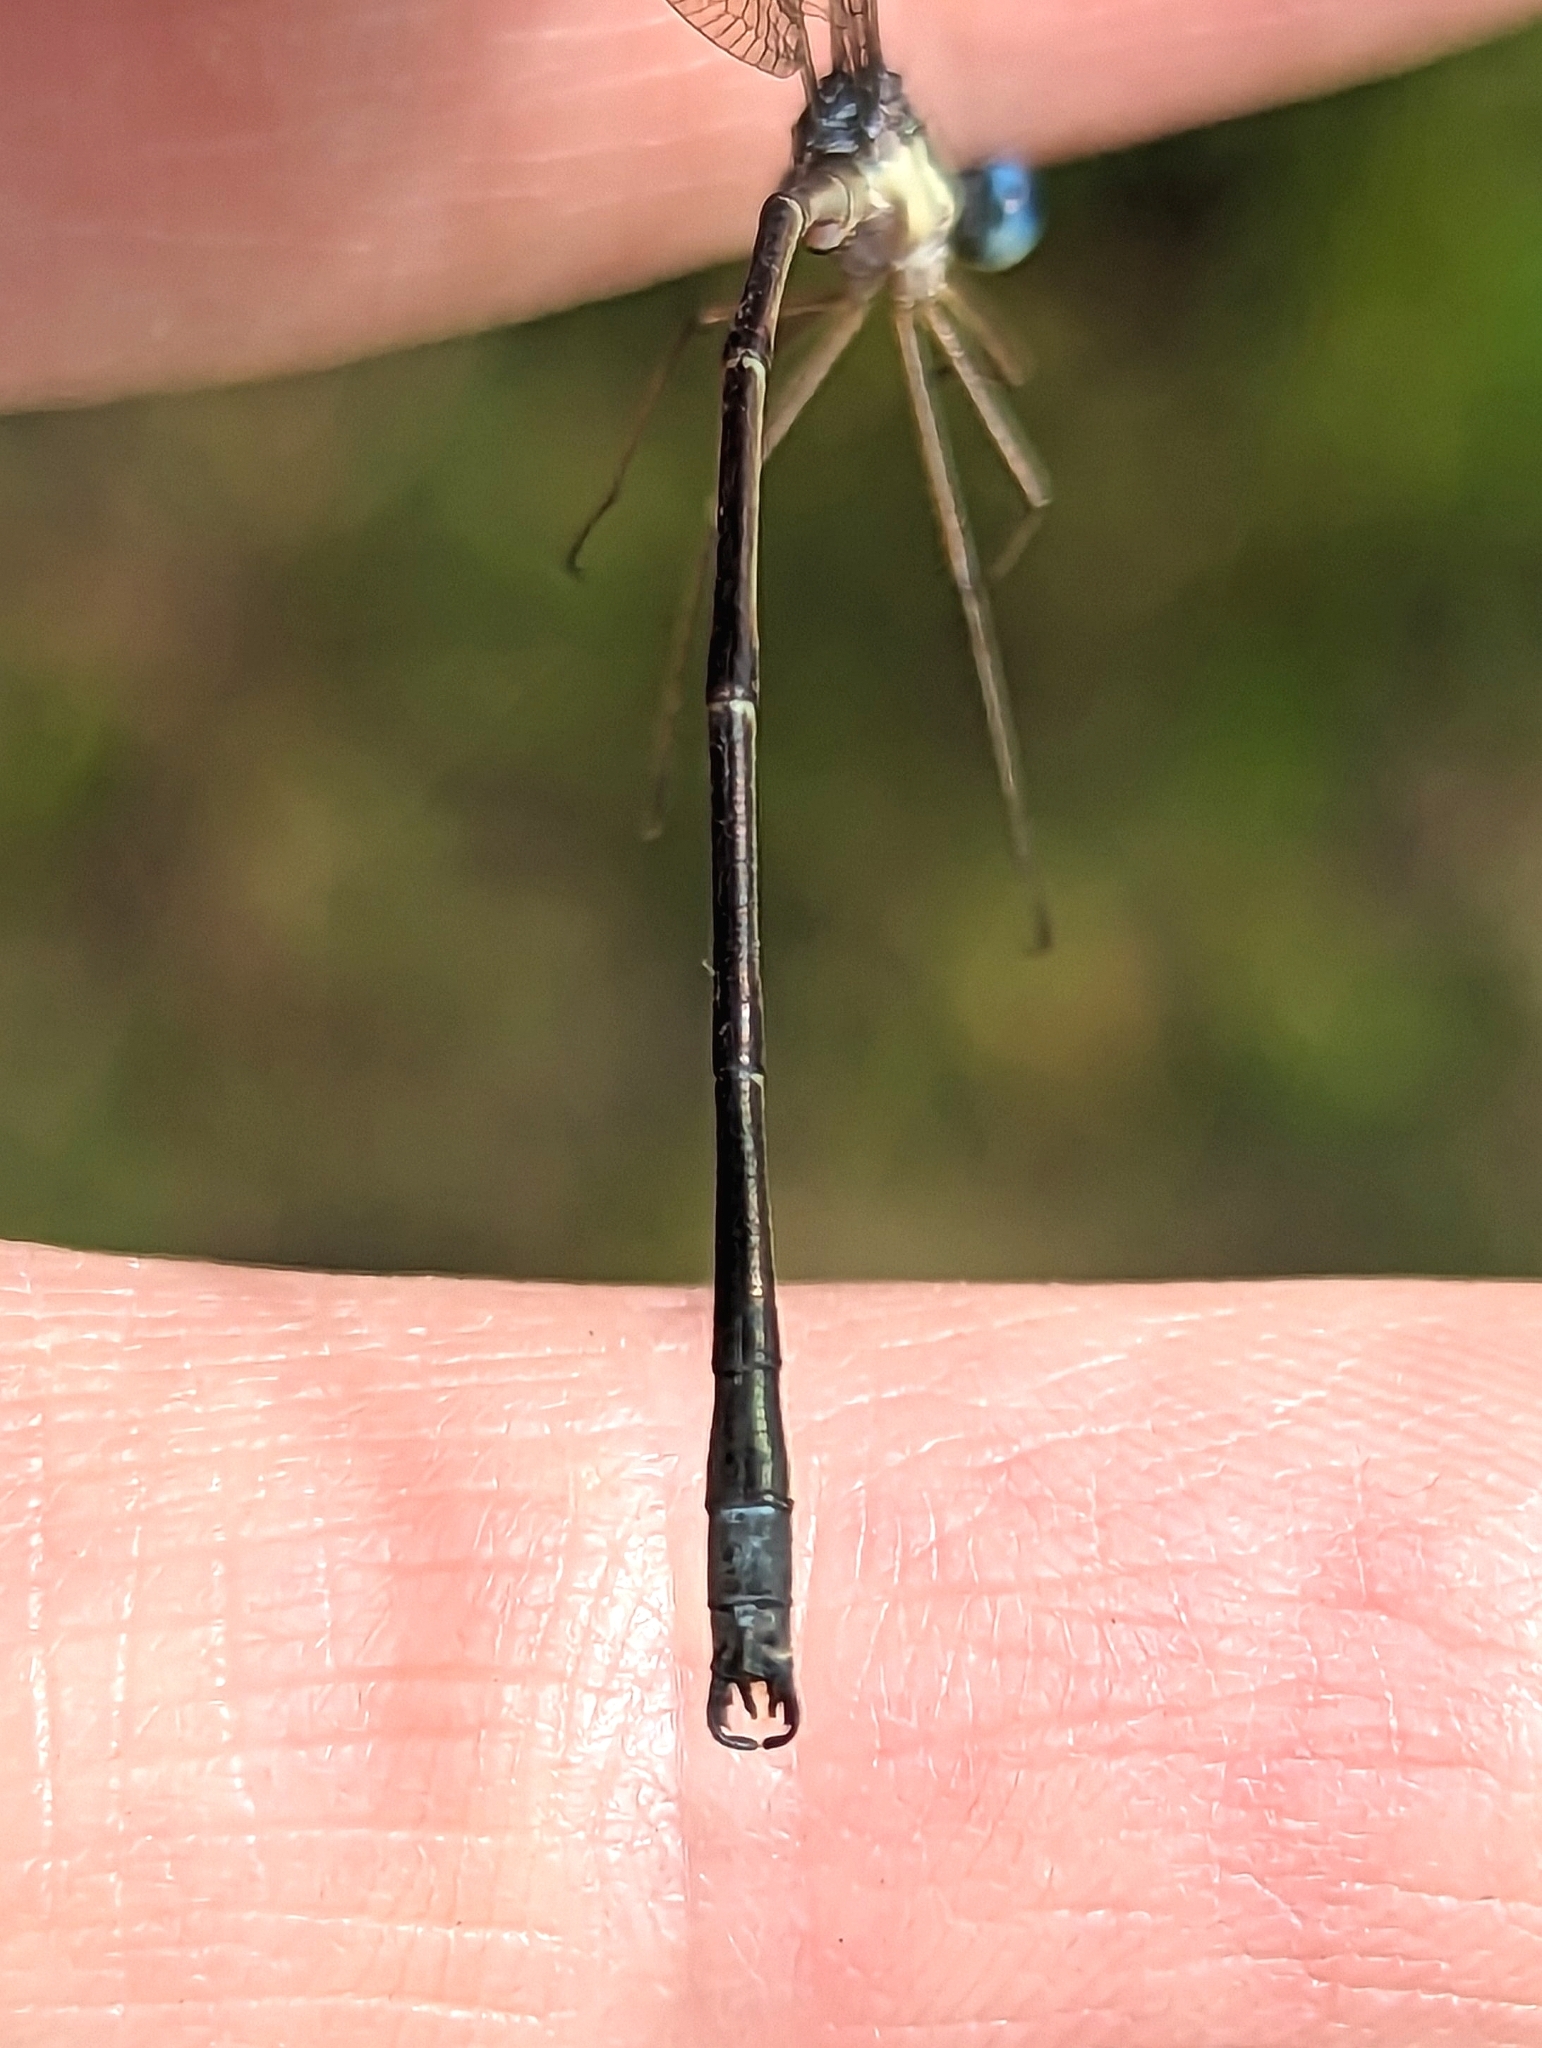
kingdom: Animalia
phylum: Arthropoda
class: Insecta
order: Odonata
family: Lestidae
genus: Lestes
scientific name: Lestes rectangularis
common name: Slender spreadwing
